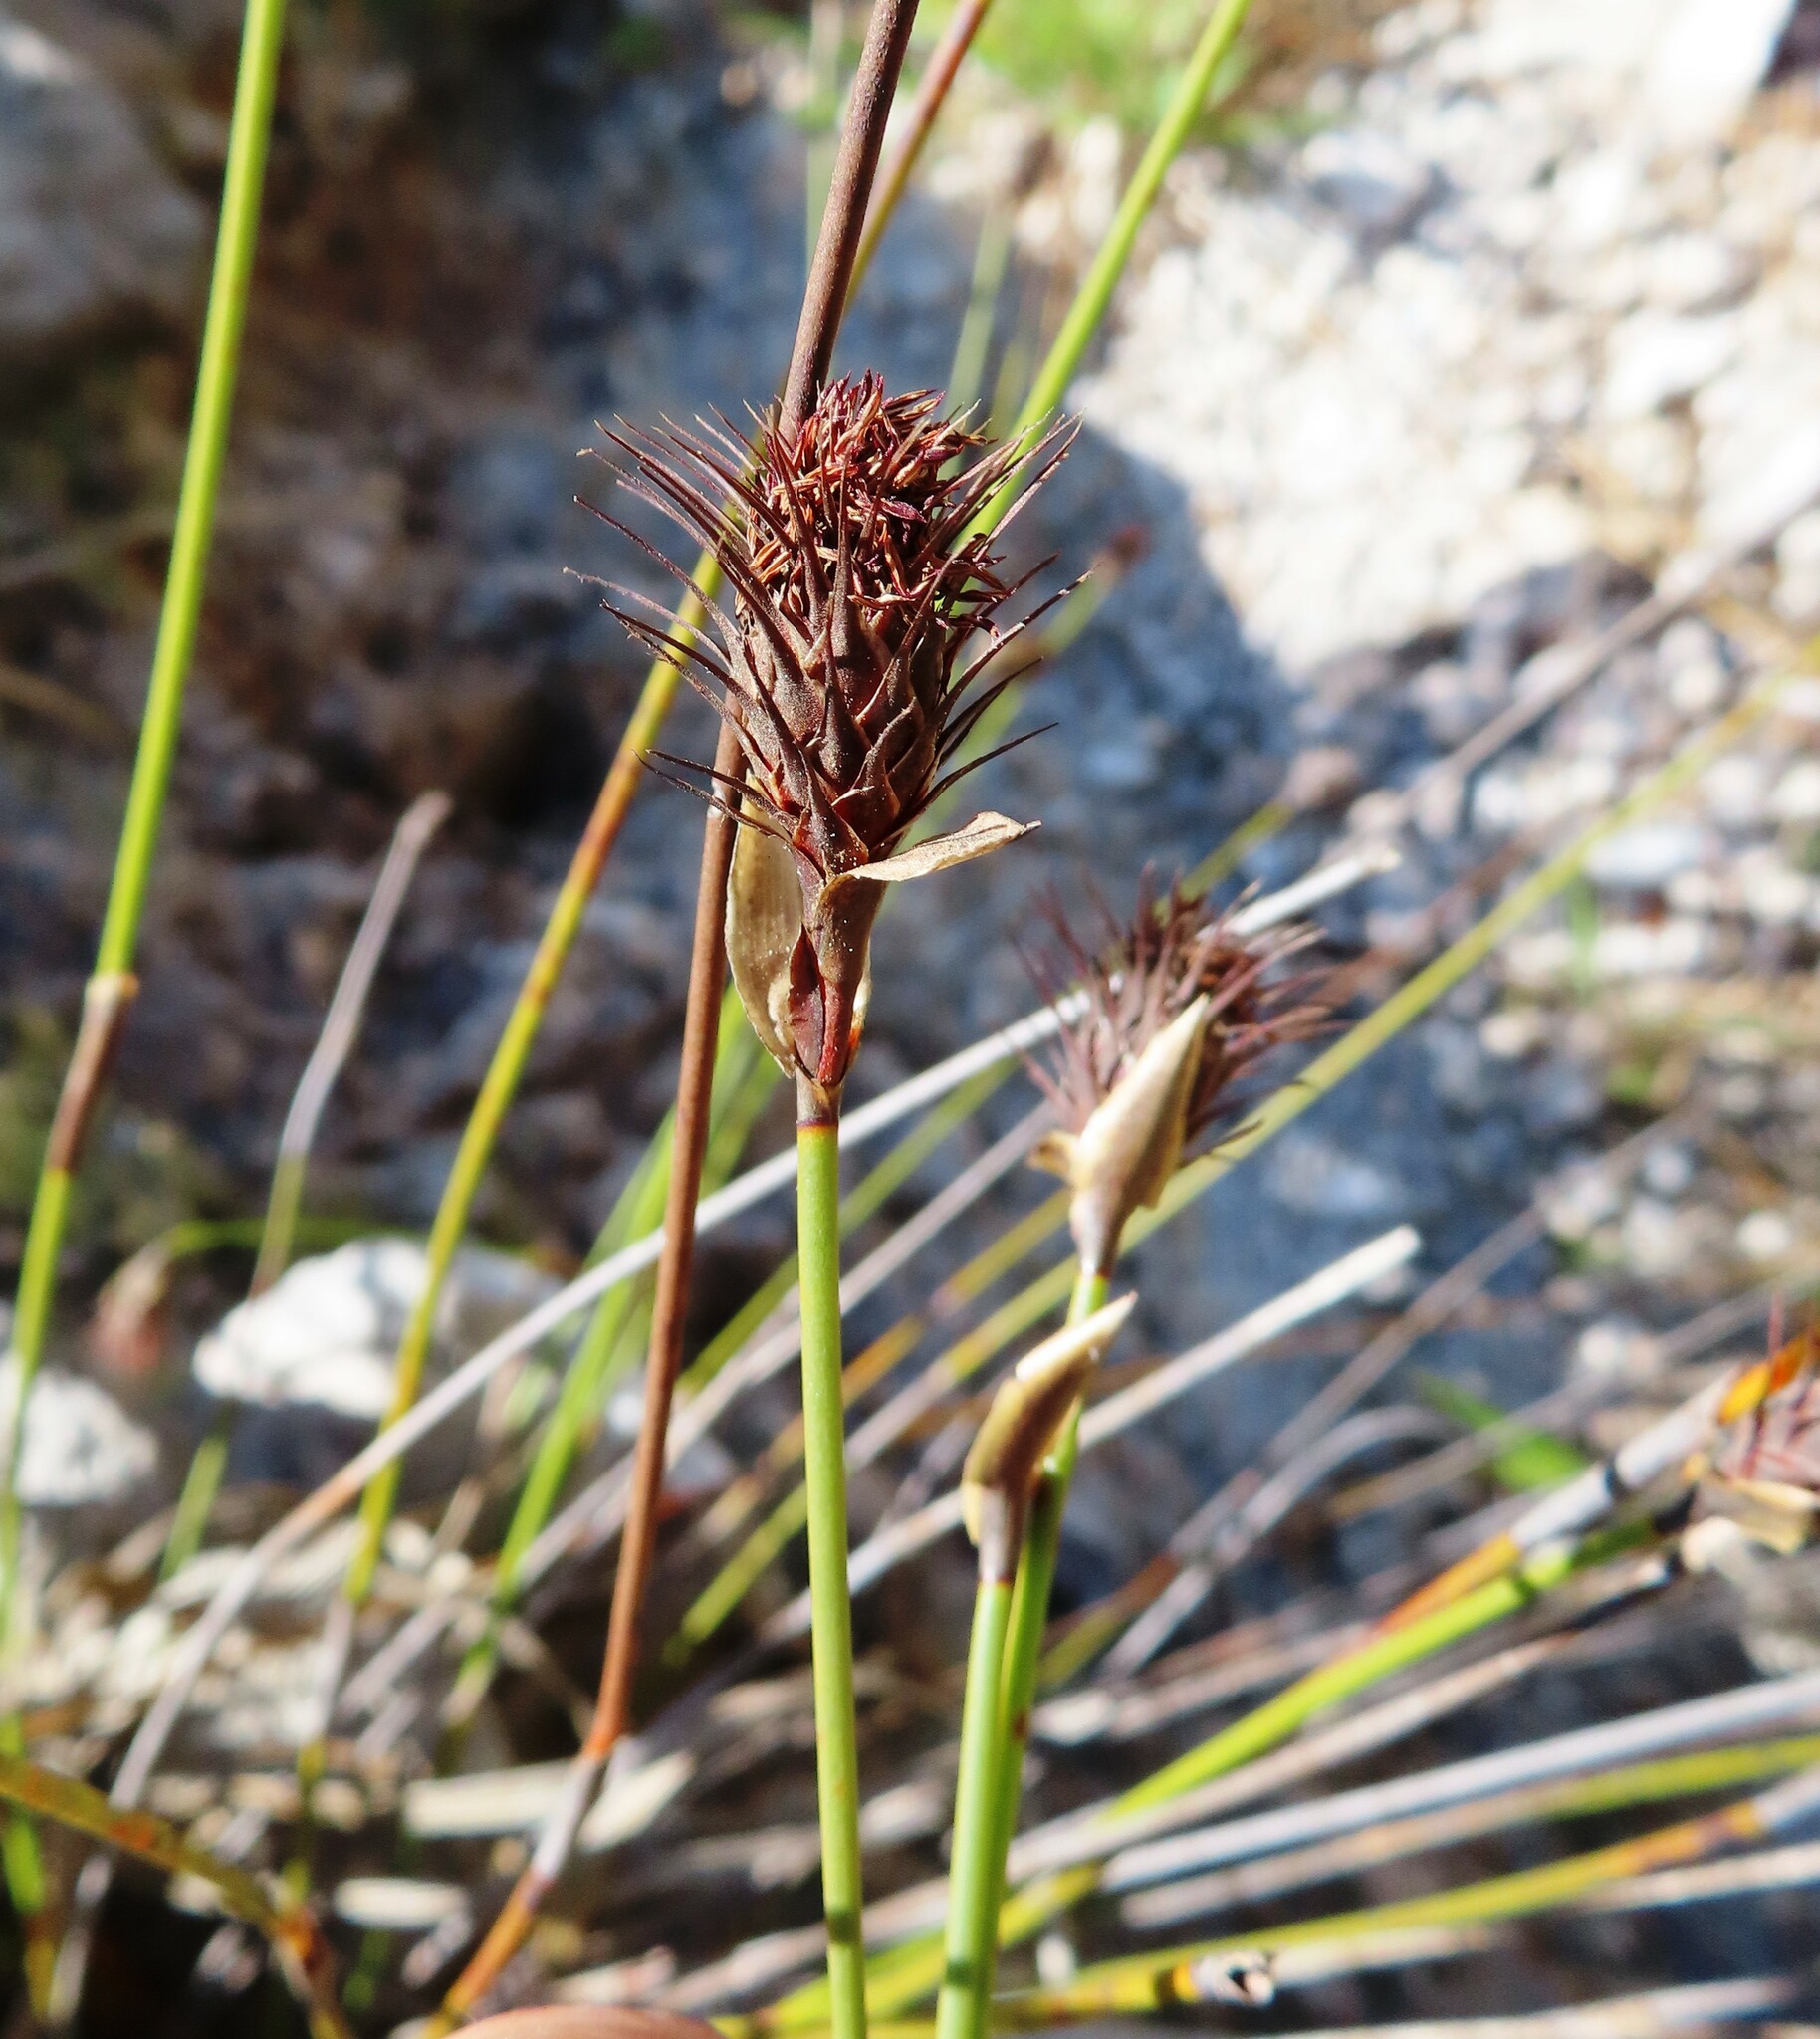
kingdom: Plantae
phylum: Tracheophyta
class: Liliopsida
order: Poales
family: Restionaceae
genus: Hypodiscus
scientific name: Hypodiscus aristatus
